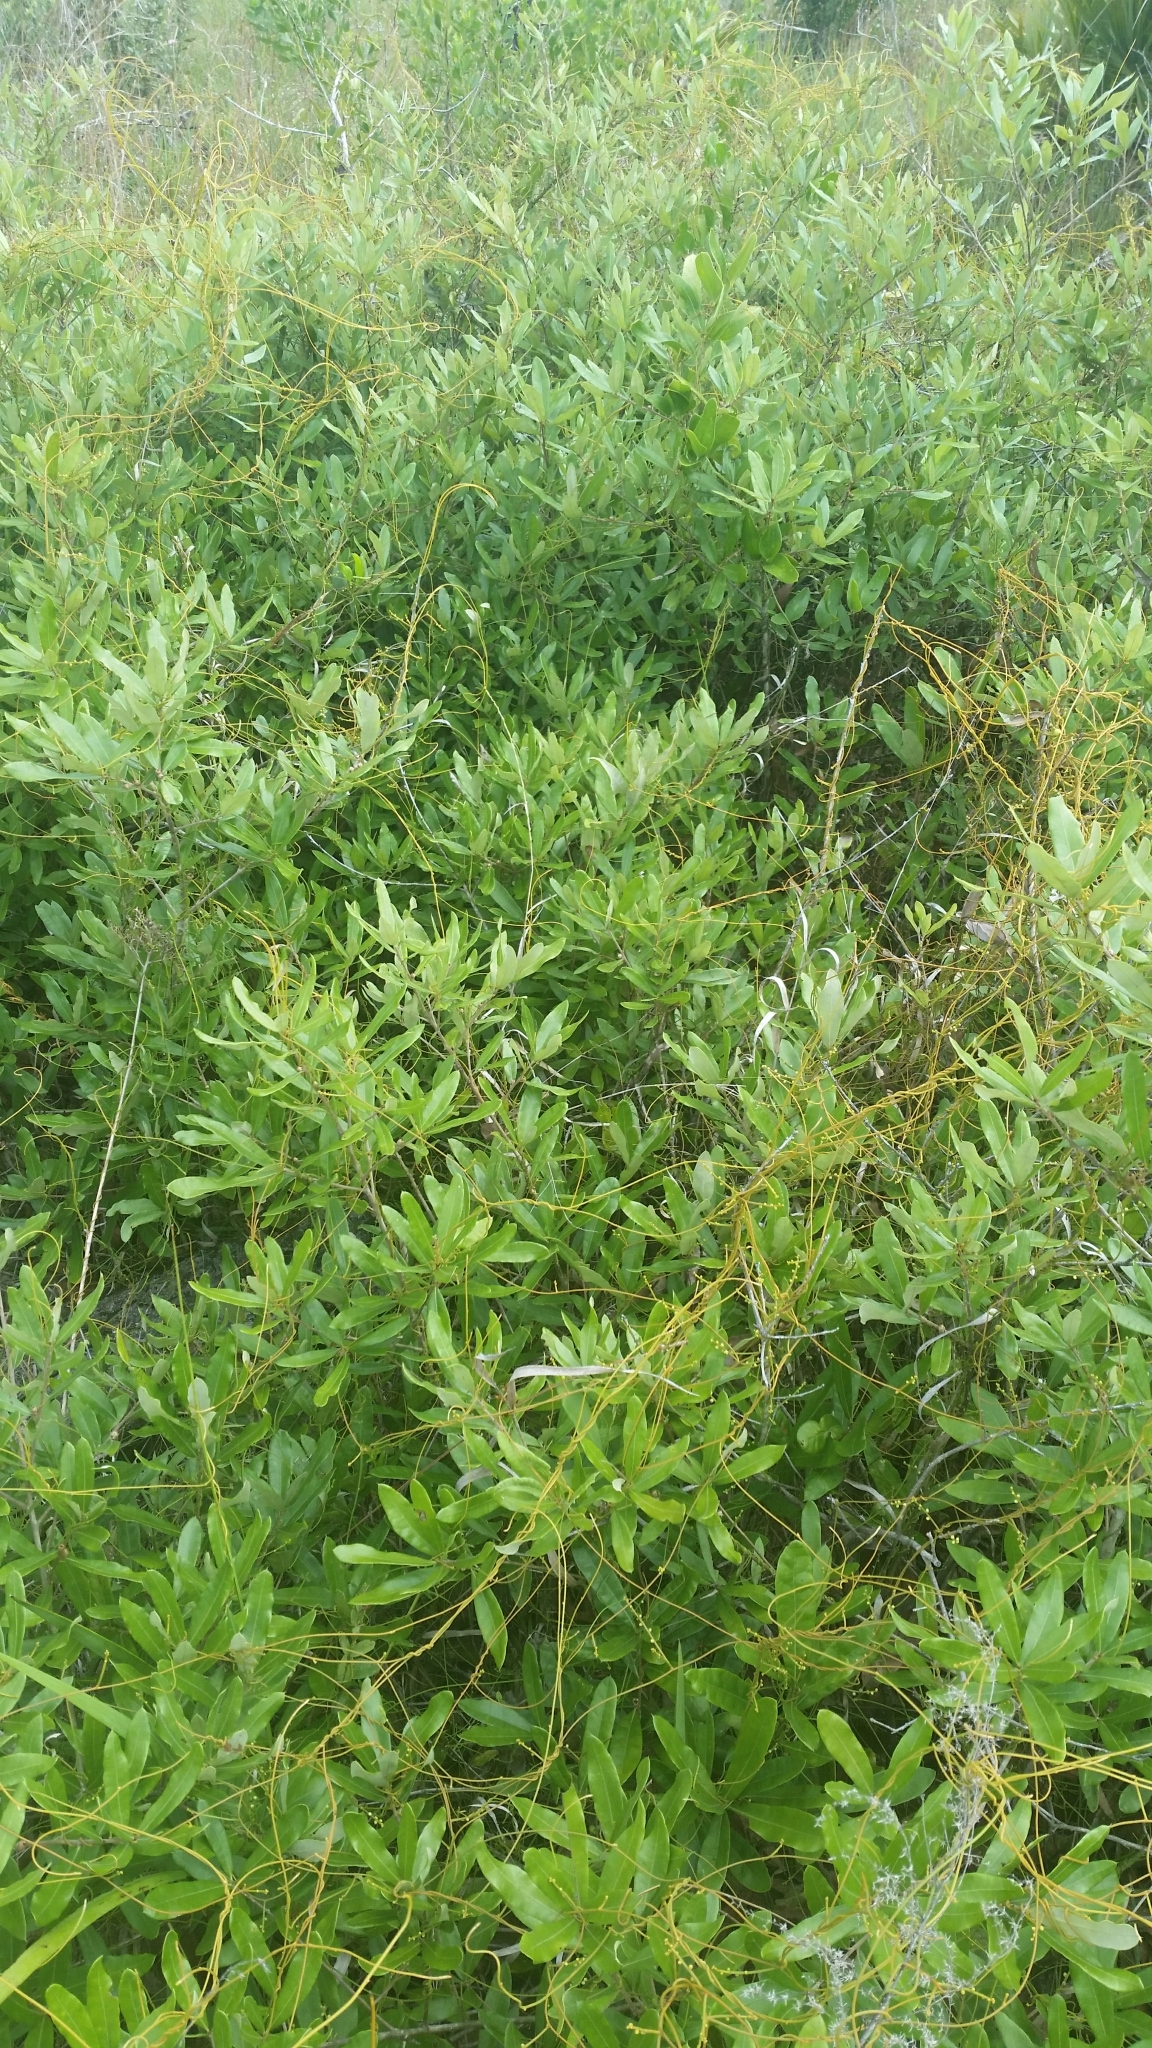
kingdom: Plantae
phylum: Tracheophyta
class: Magnoliopsida
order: Fagales
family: Fagaceae
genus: Quercus
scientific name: Quercus pumila
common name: Runner oak
